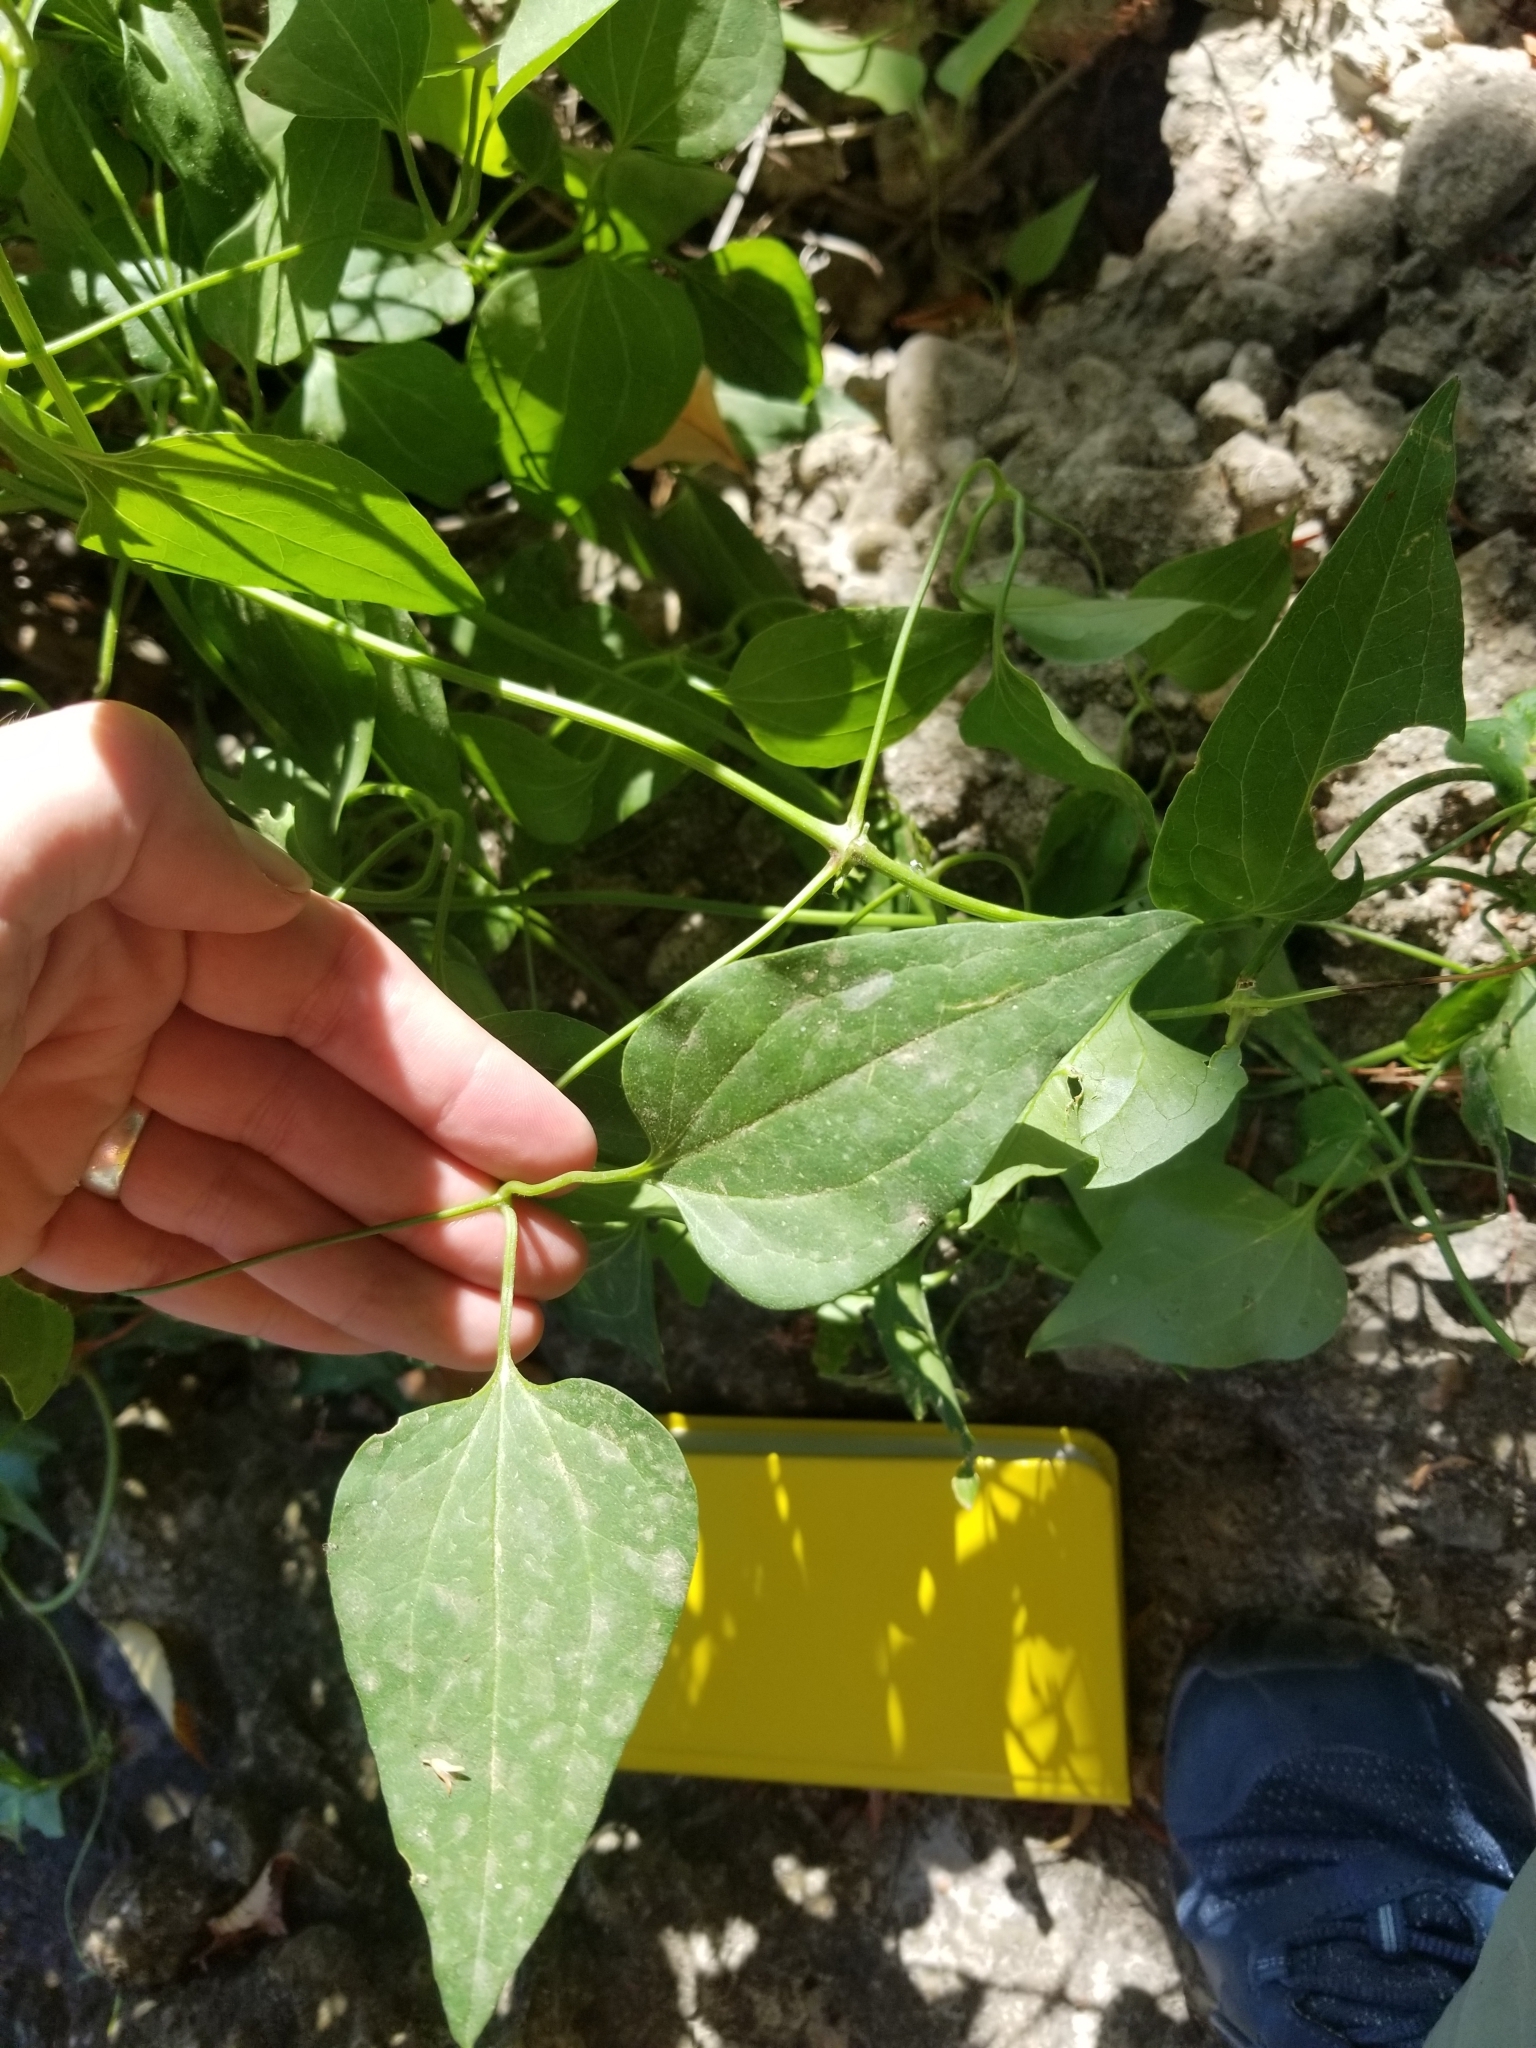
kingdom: Plantae
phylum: Tracheophyta
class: Magnoliopsida
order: Ranunculales
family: Ranunculaceae
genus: Clematis
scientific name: Clematis terniflora
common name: Sweet autumn clematis
